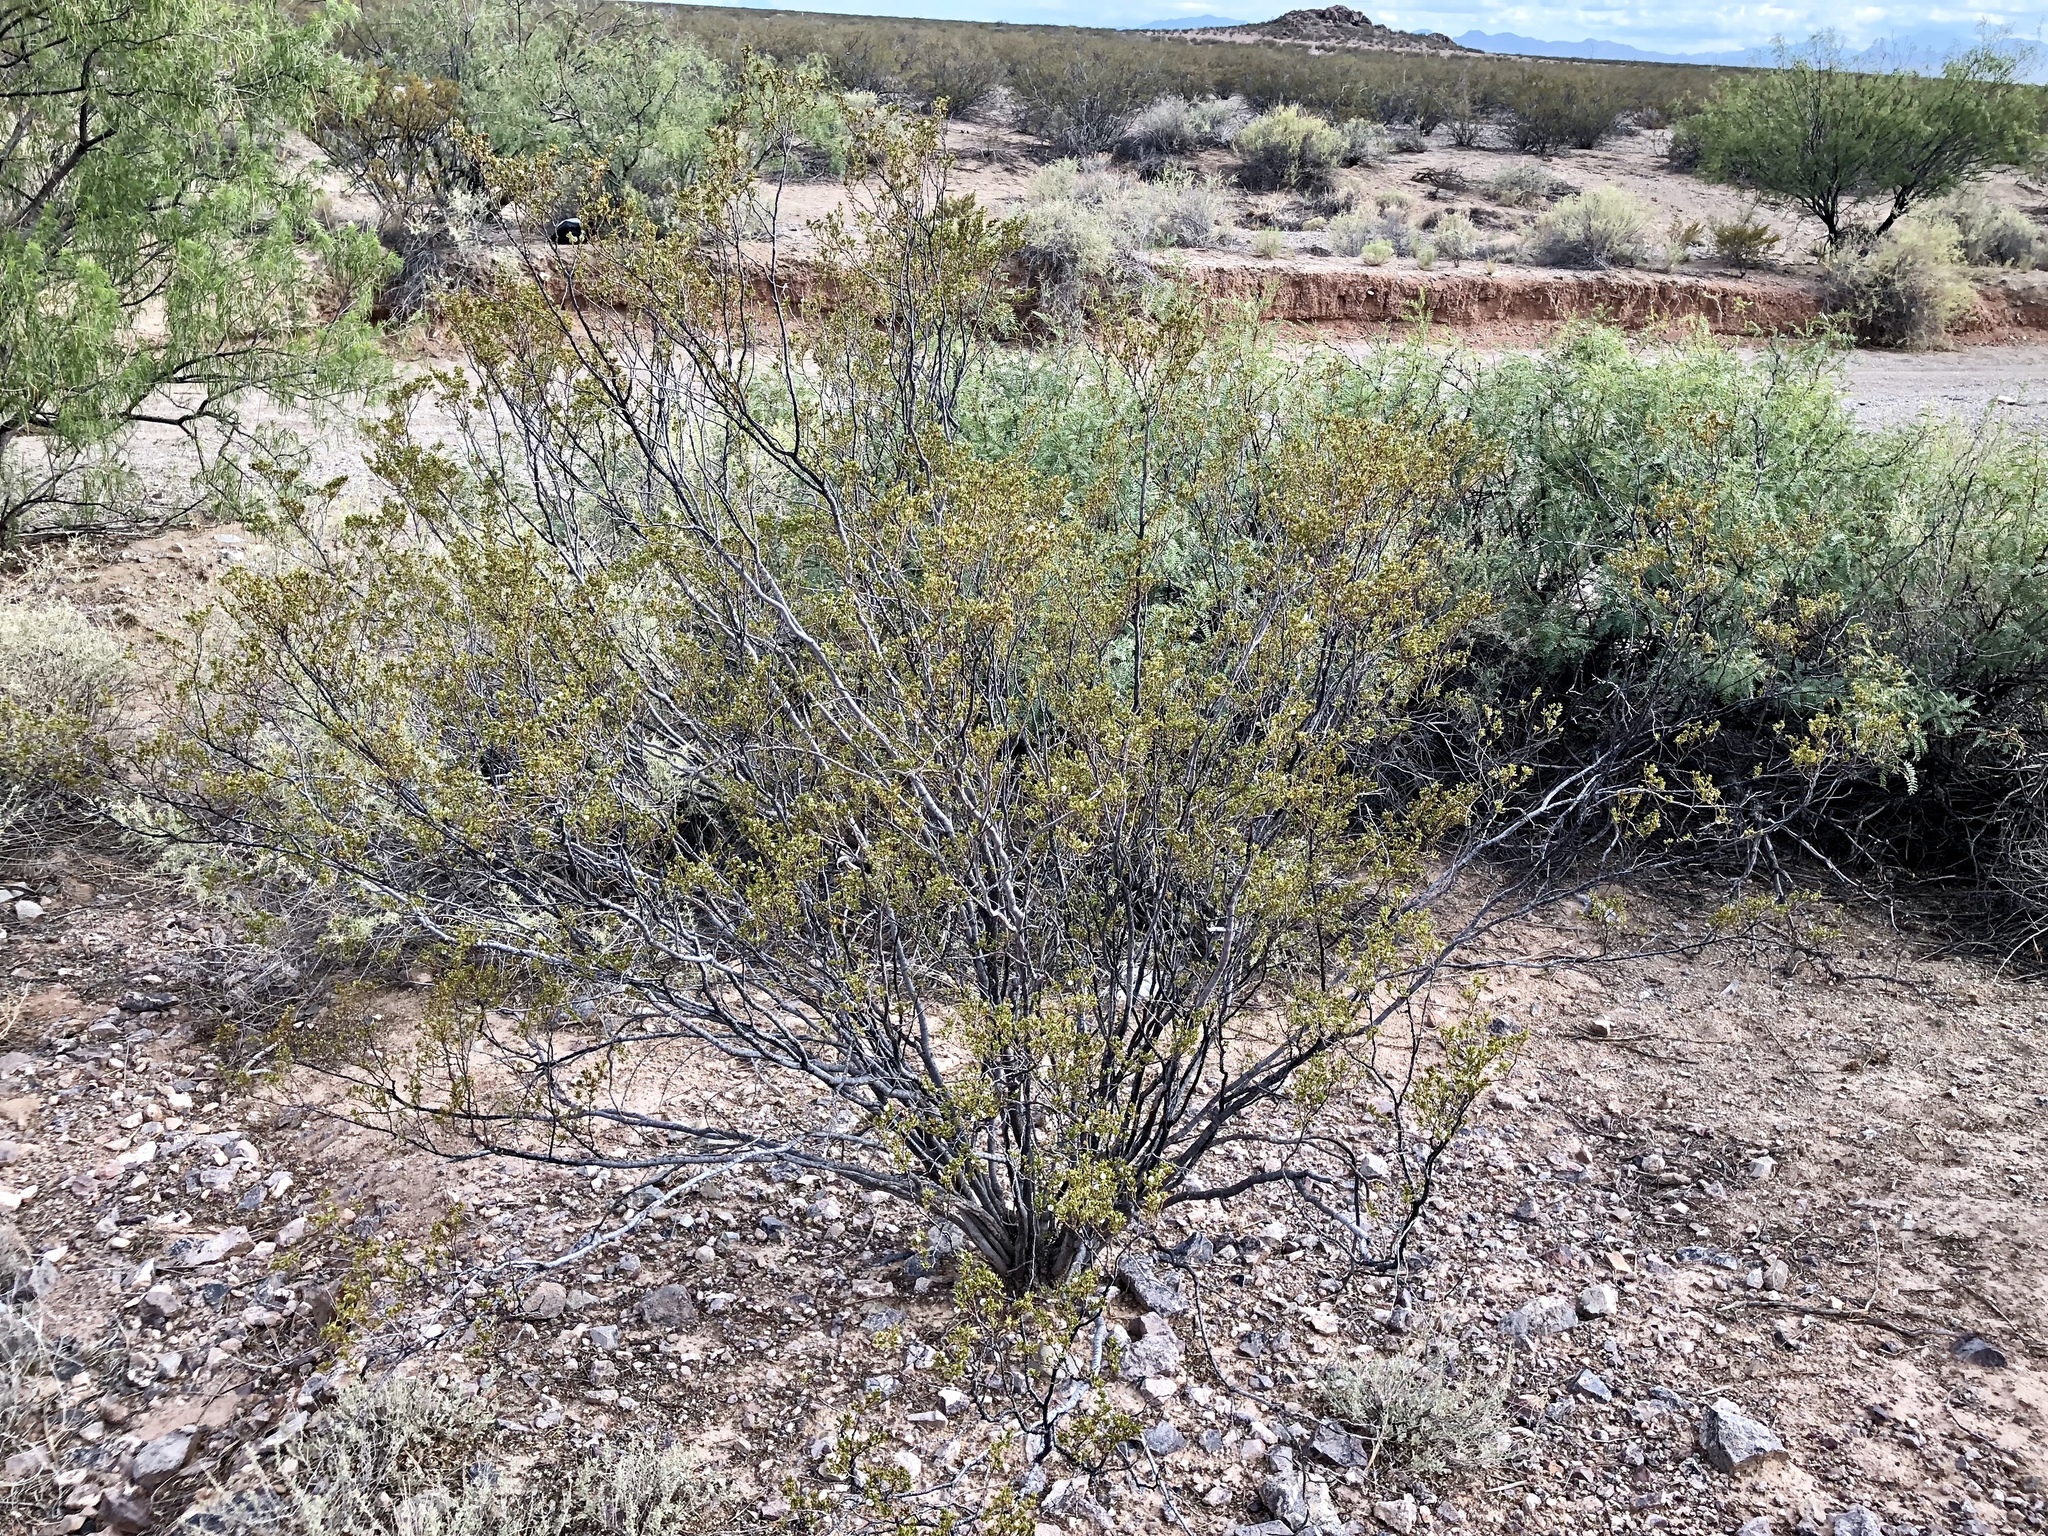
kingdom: Plantae
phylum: Tracheophyta
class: Magnoliopsida
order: Zygophyllales
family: Zygophyllaceae
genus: Larrea
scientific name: Larrea tridentata
